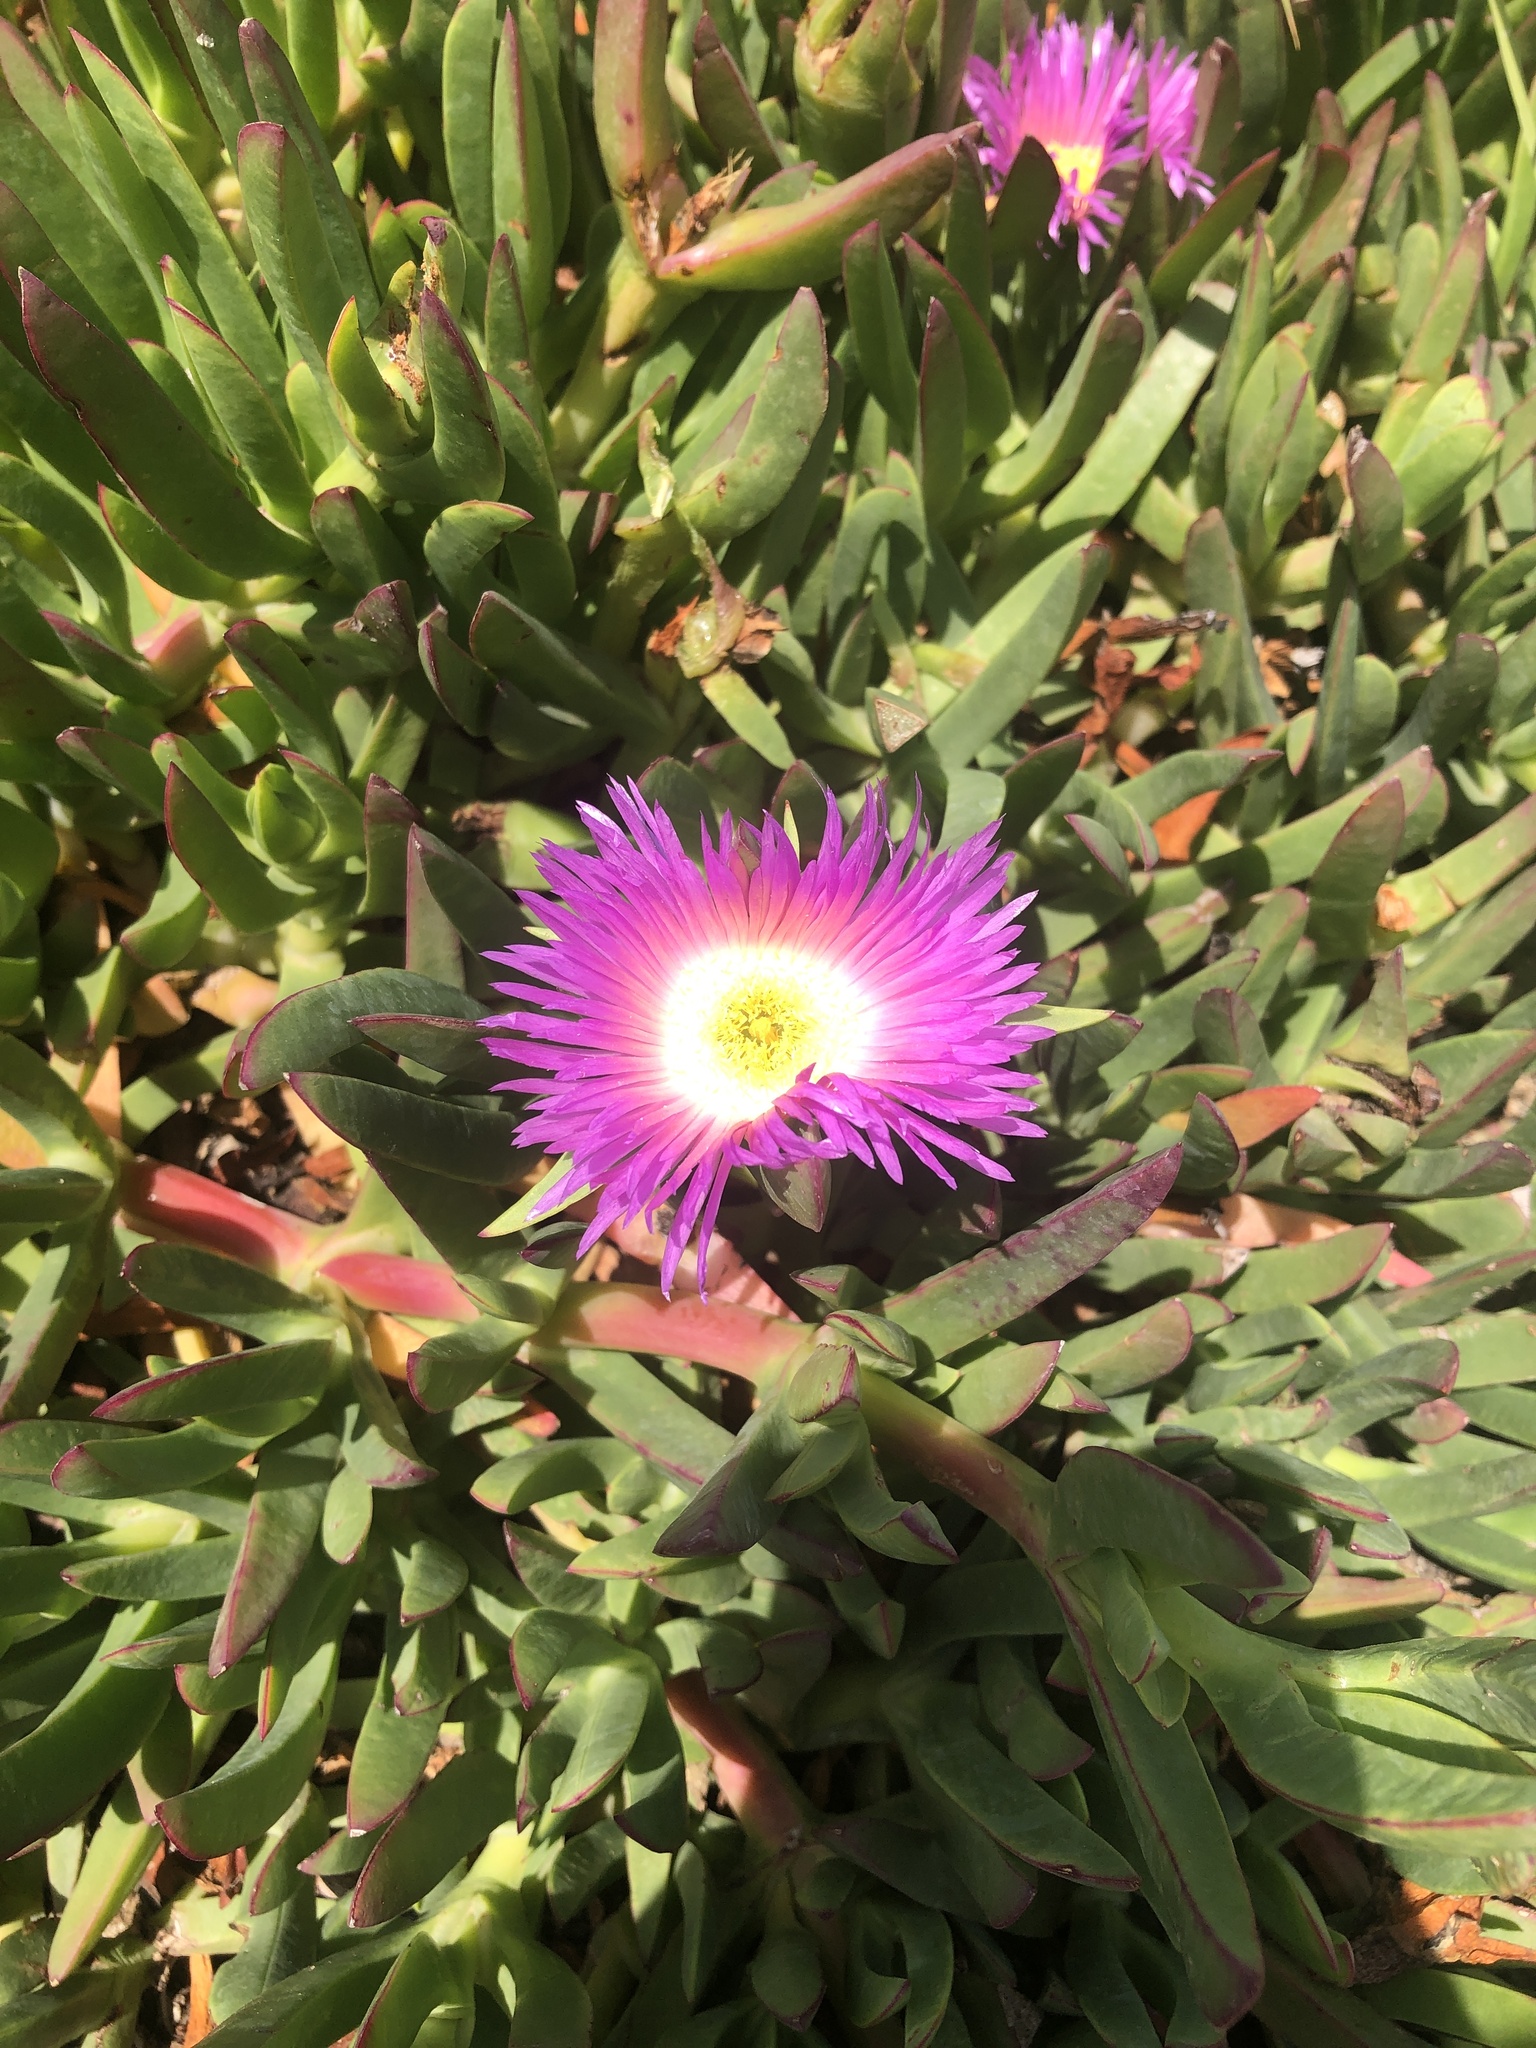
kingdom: Plantae
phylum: Tracheophyta
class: Magnoliopsida
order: Caryophyllales
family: Aizoaceae
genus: Carpobrotus
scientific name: Carpobrotus chilensis
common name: Sea fig
